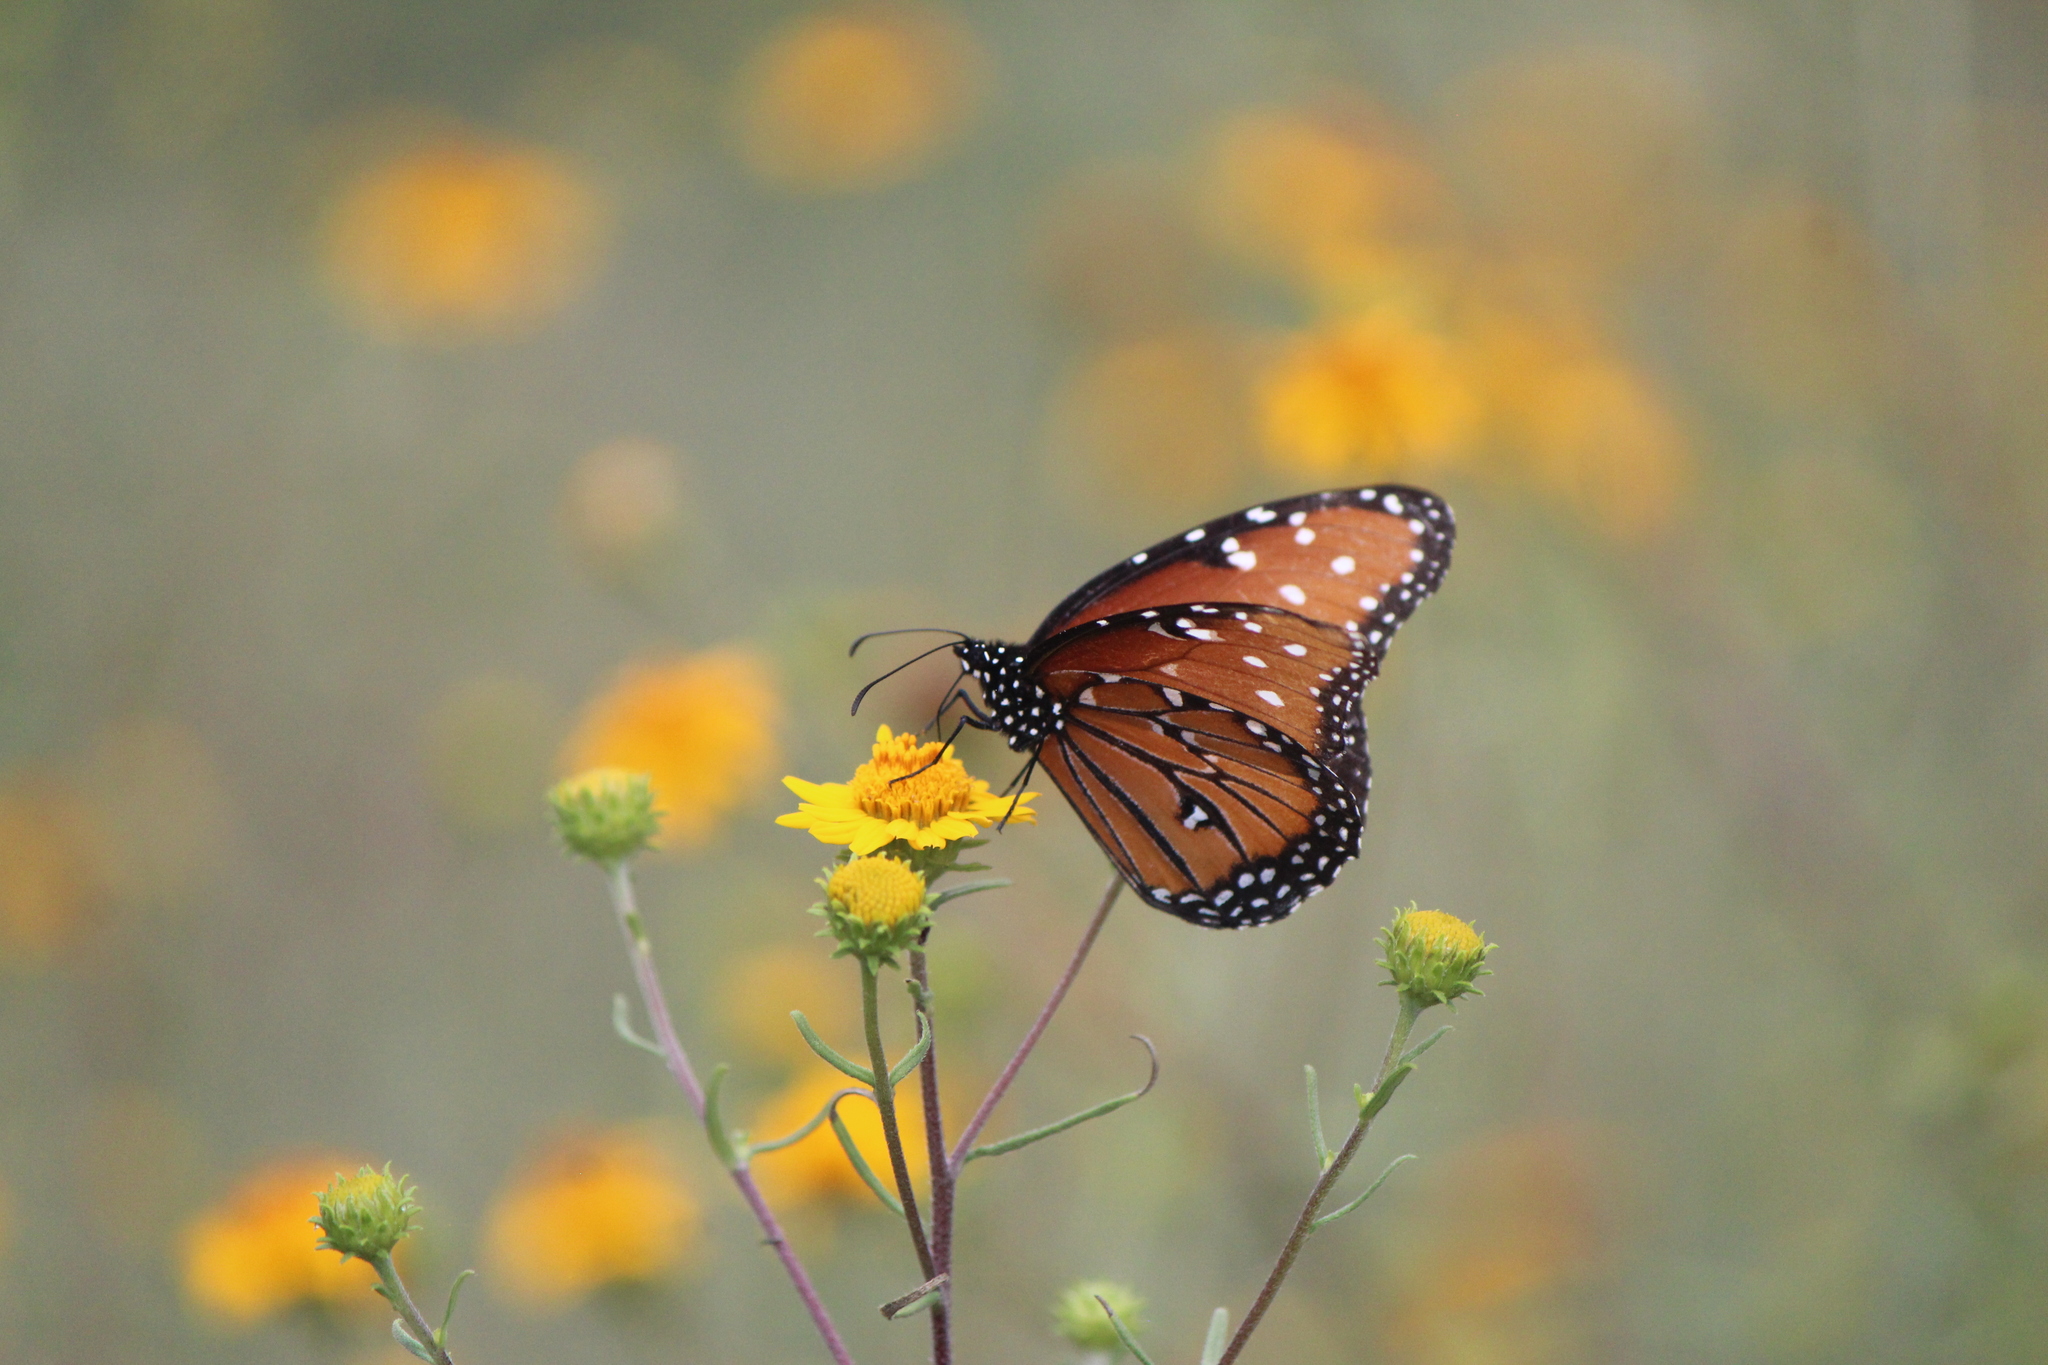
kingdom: Animalia
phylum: Arthropoda
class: Insecta
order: Lepidoptera
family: Nymphalidae
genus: Danaus
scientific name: Danaus gilippus
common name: Queen
